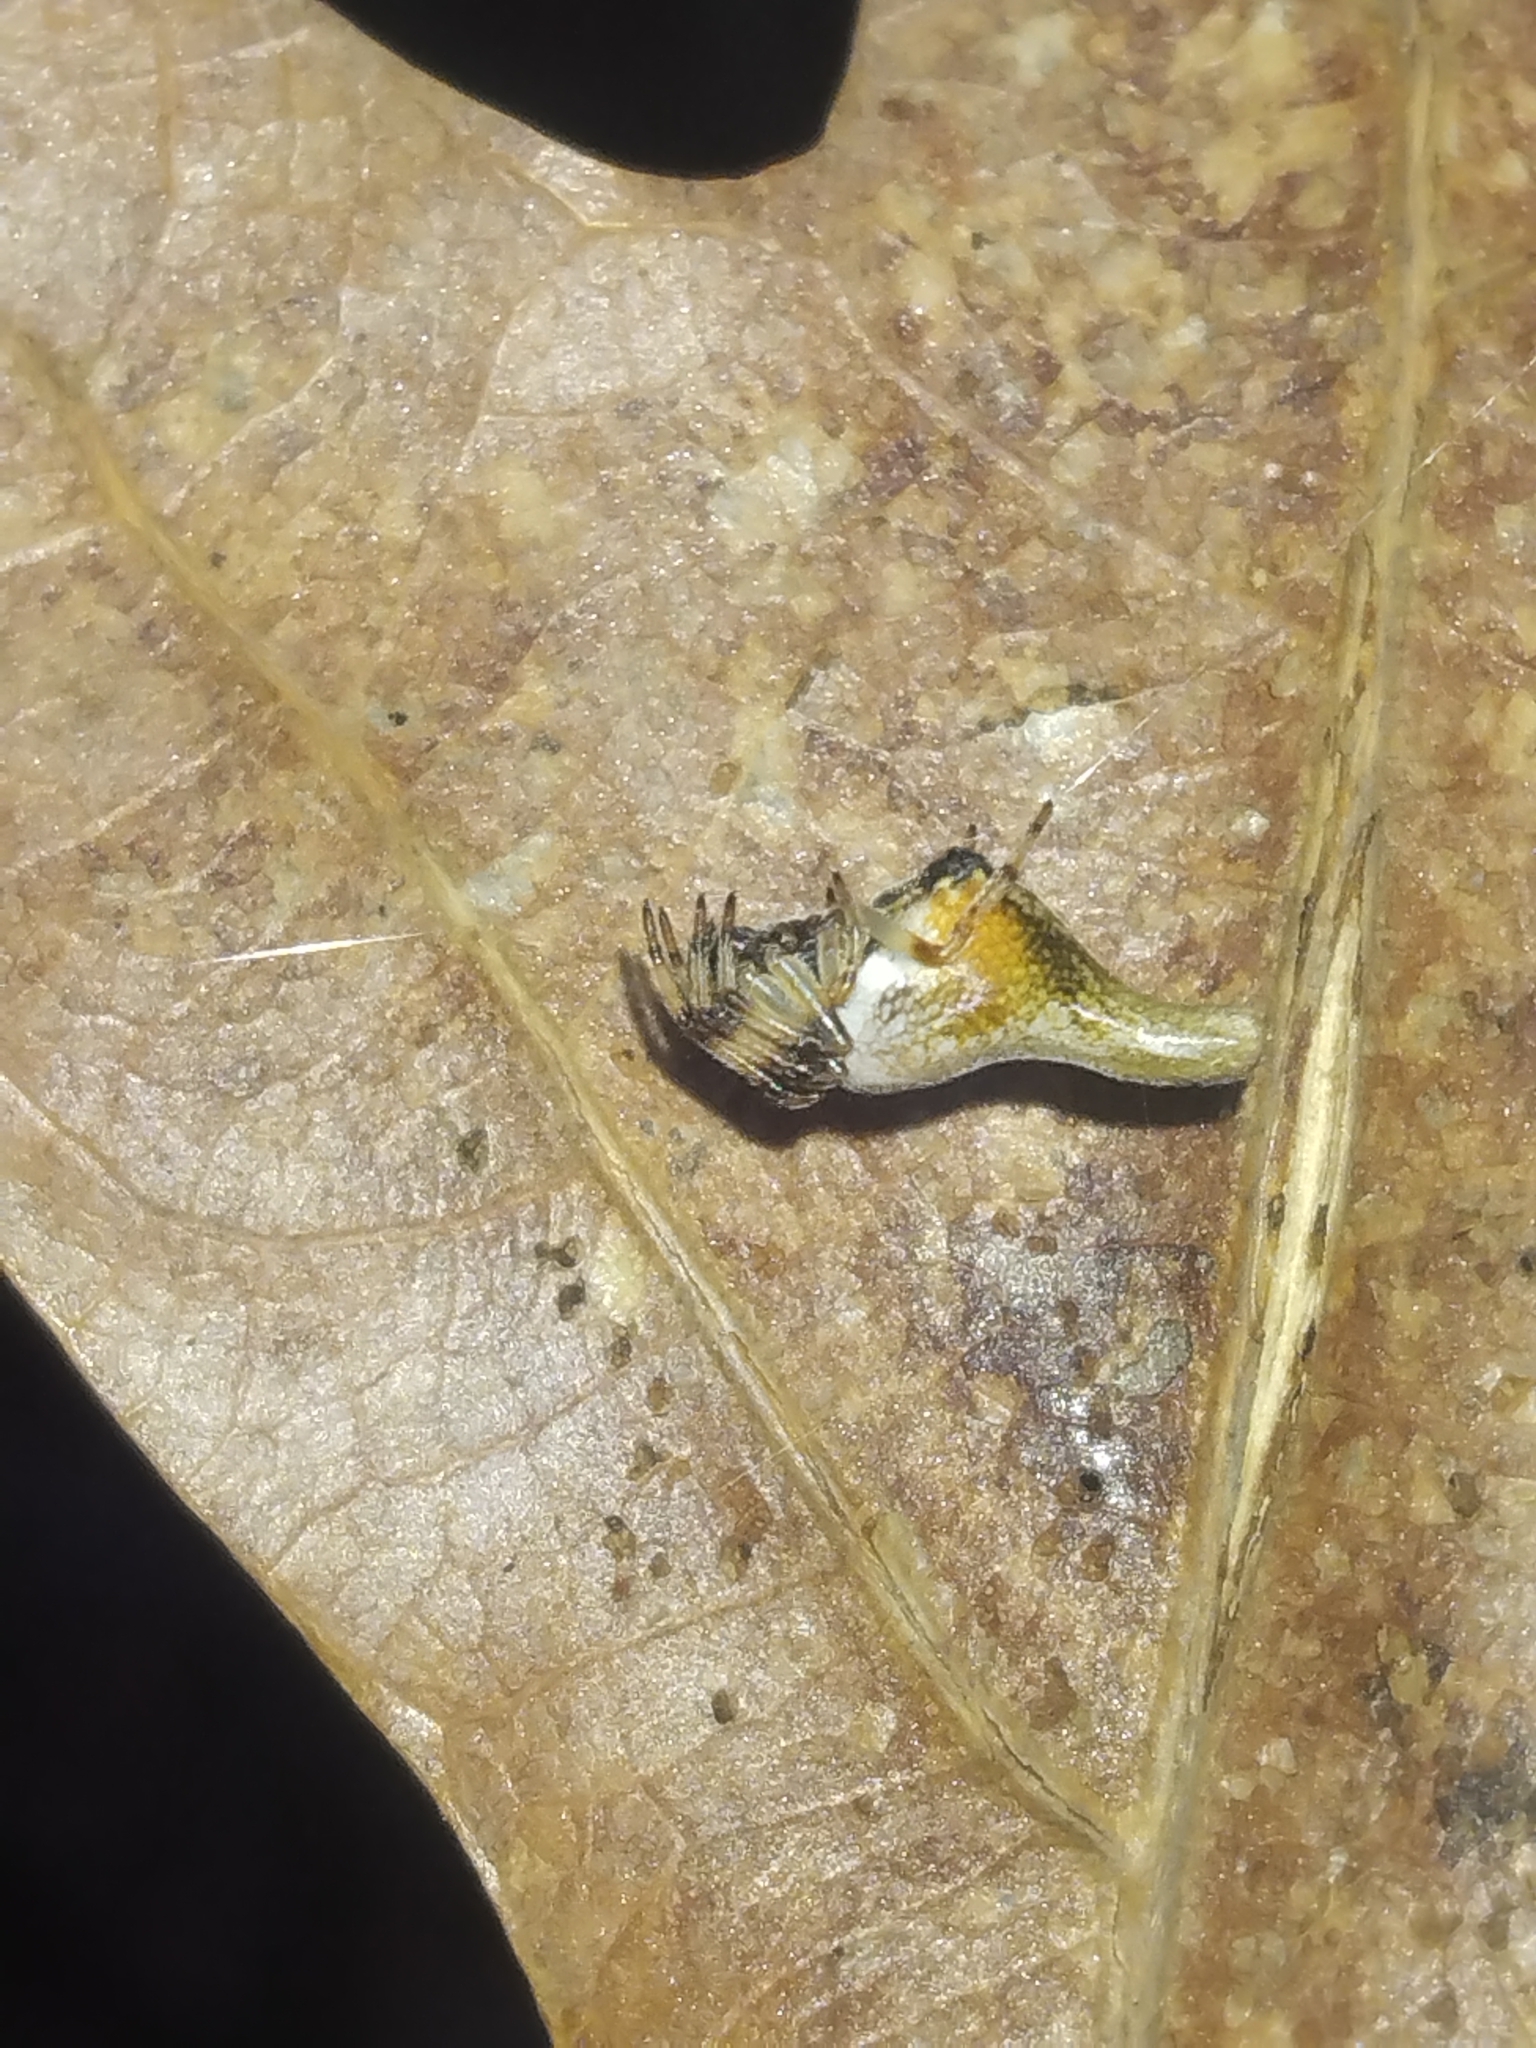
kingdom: Animalia
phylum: Arthropoda
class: Arachnida
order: Araneae
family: Araneidae
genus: Cyclosa
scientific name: Cyclosa conica
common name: Conical trashline orbweaver
